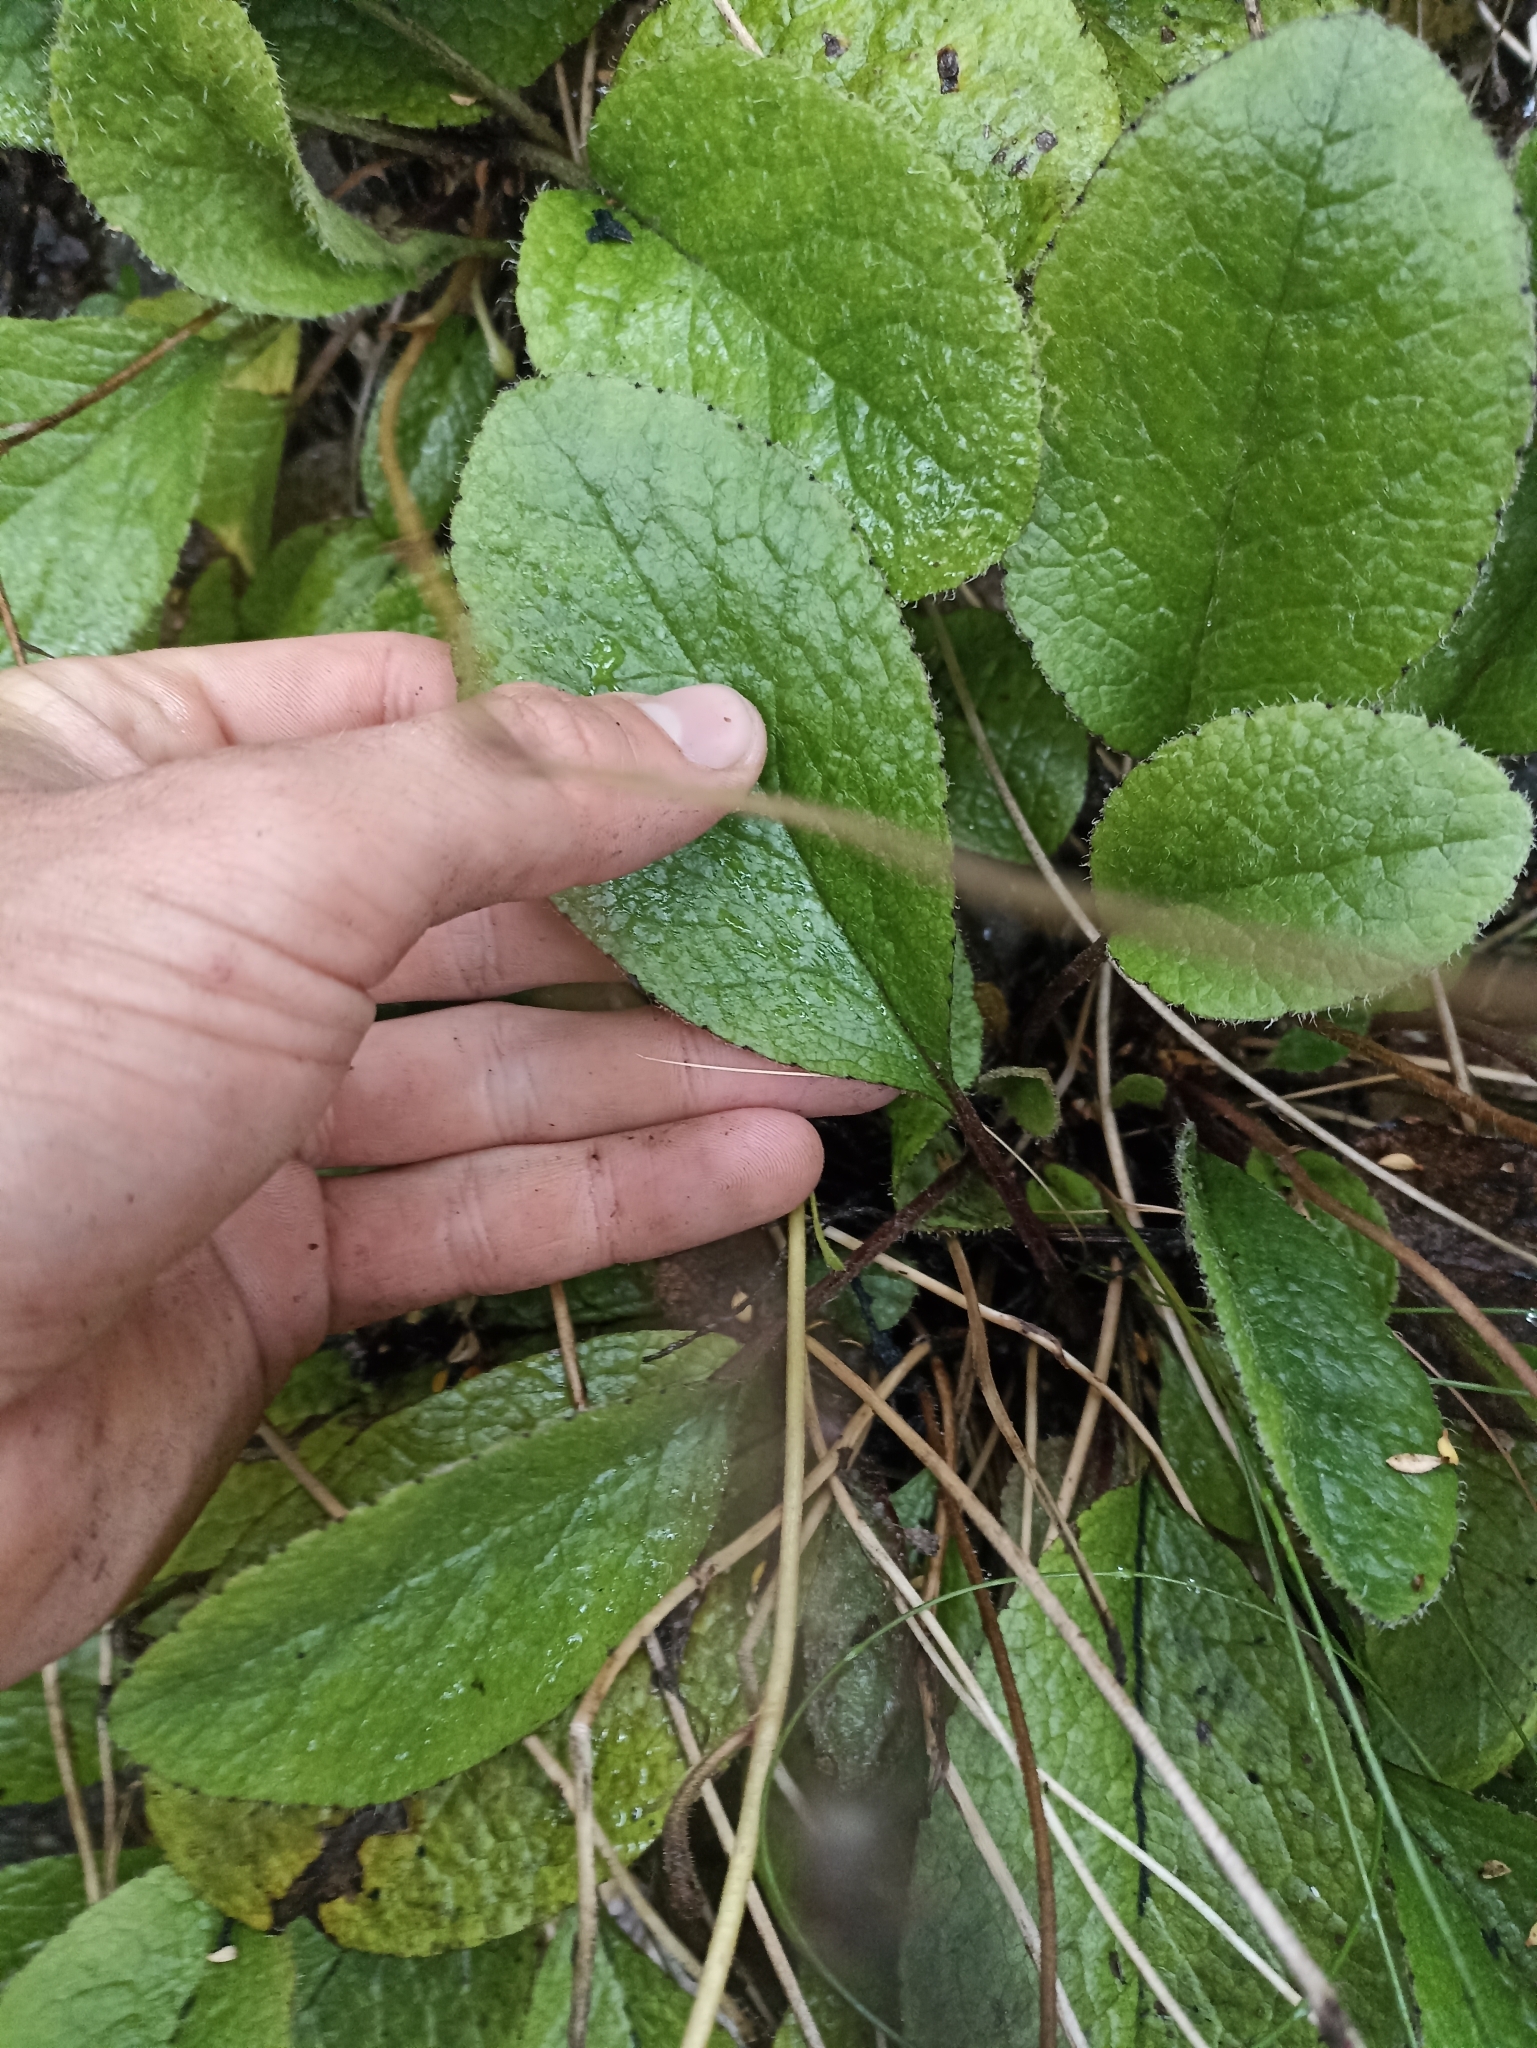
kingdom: Plantae
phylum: Tracheophyta
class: Magnoliopsida
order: Asterales
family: Asteraceae
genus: Brachyglottis
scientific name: Brachyglottis southlandica
